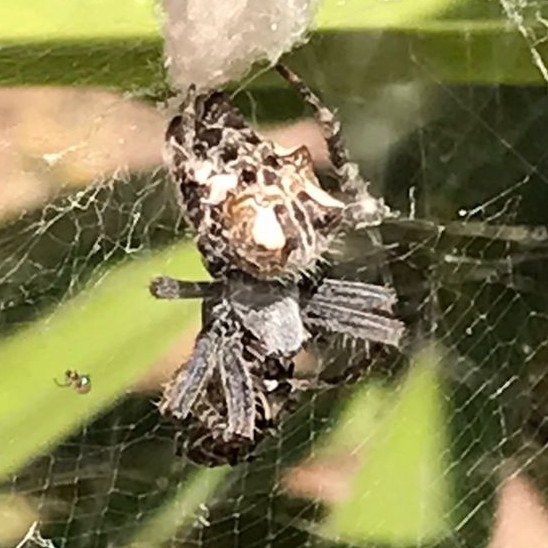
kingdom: Animalia
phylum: Arthropoda
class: Arachnida
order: Araneae
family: Araneidae
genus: Cyrtophora
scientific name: Cyrtophora citricola
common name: Orb weavers
